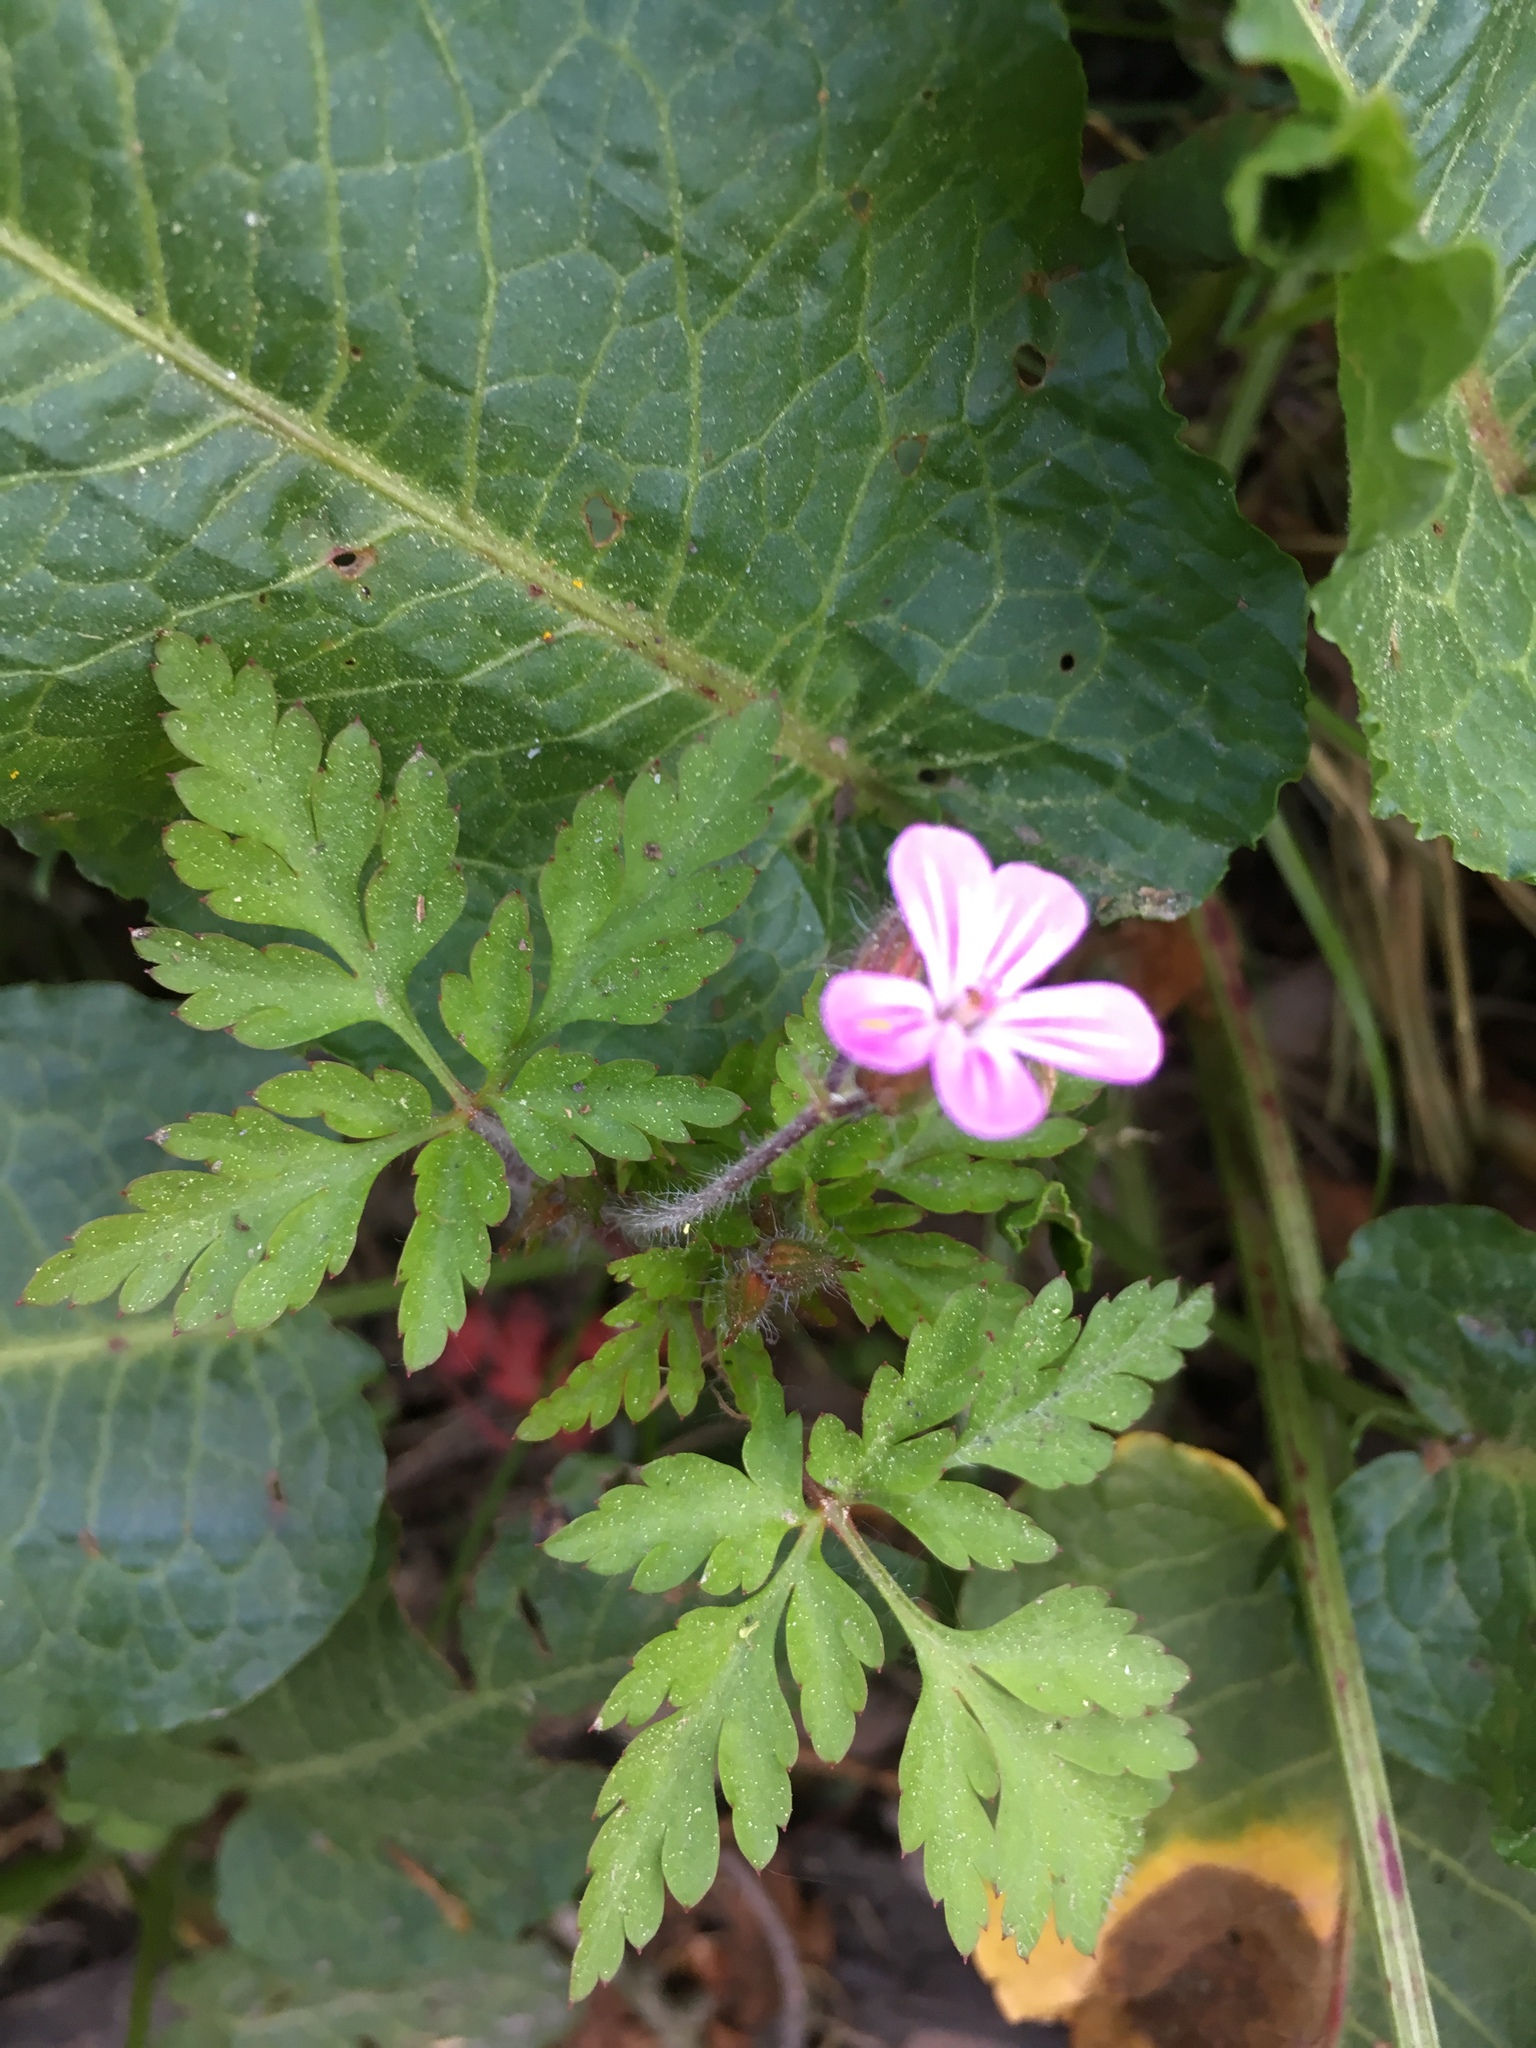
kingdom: Plantae
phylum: Tracheophyta
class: Magnoliopsida
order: Geraniales
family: Geraniaceae
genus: Geranium
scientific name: Geranium robertianum
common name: Herb-robert
